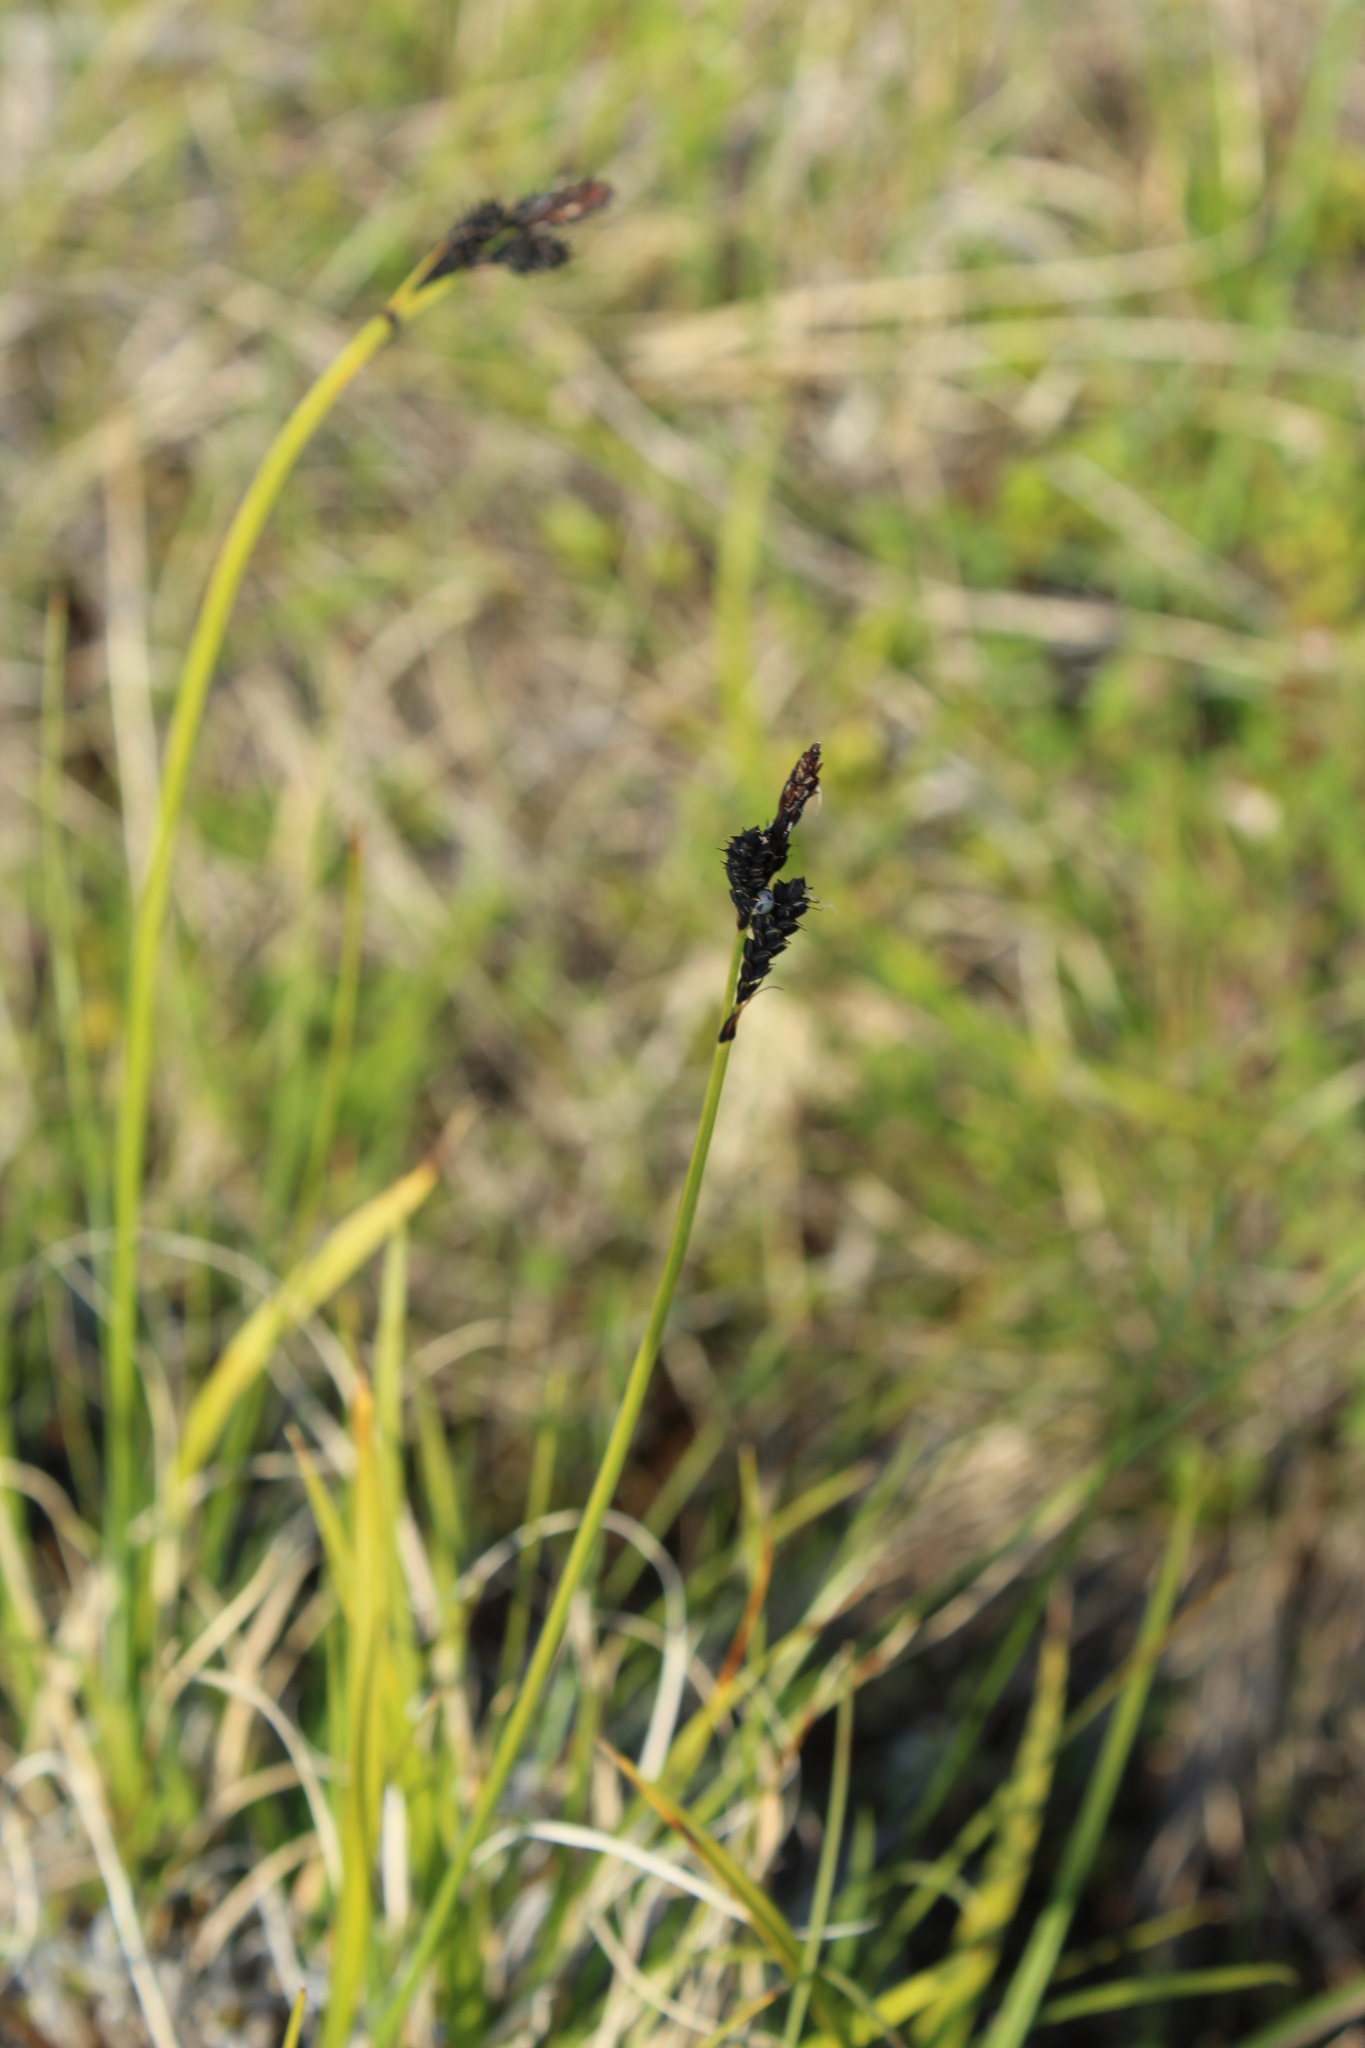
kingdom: Plantae
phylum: Tracheophyta
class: Liliopsida
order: Poales
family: Cyperaceae
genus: Carex
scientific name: Carex bigelowii
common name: Stiff sedge
